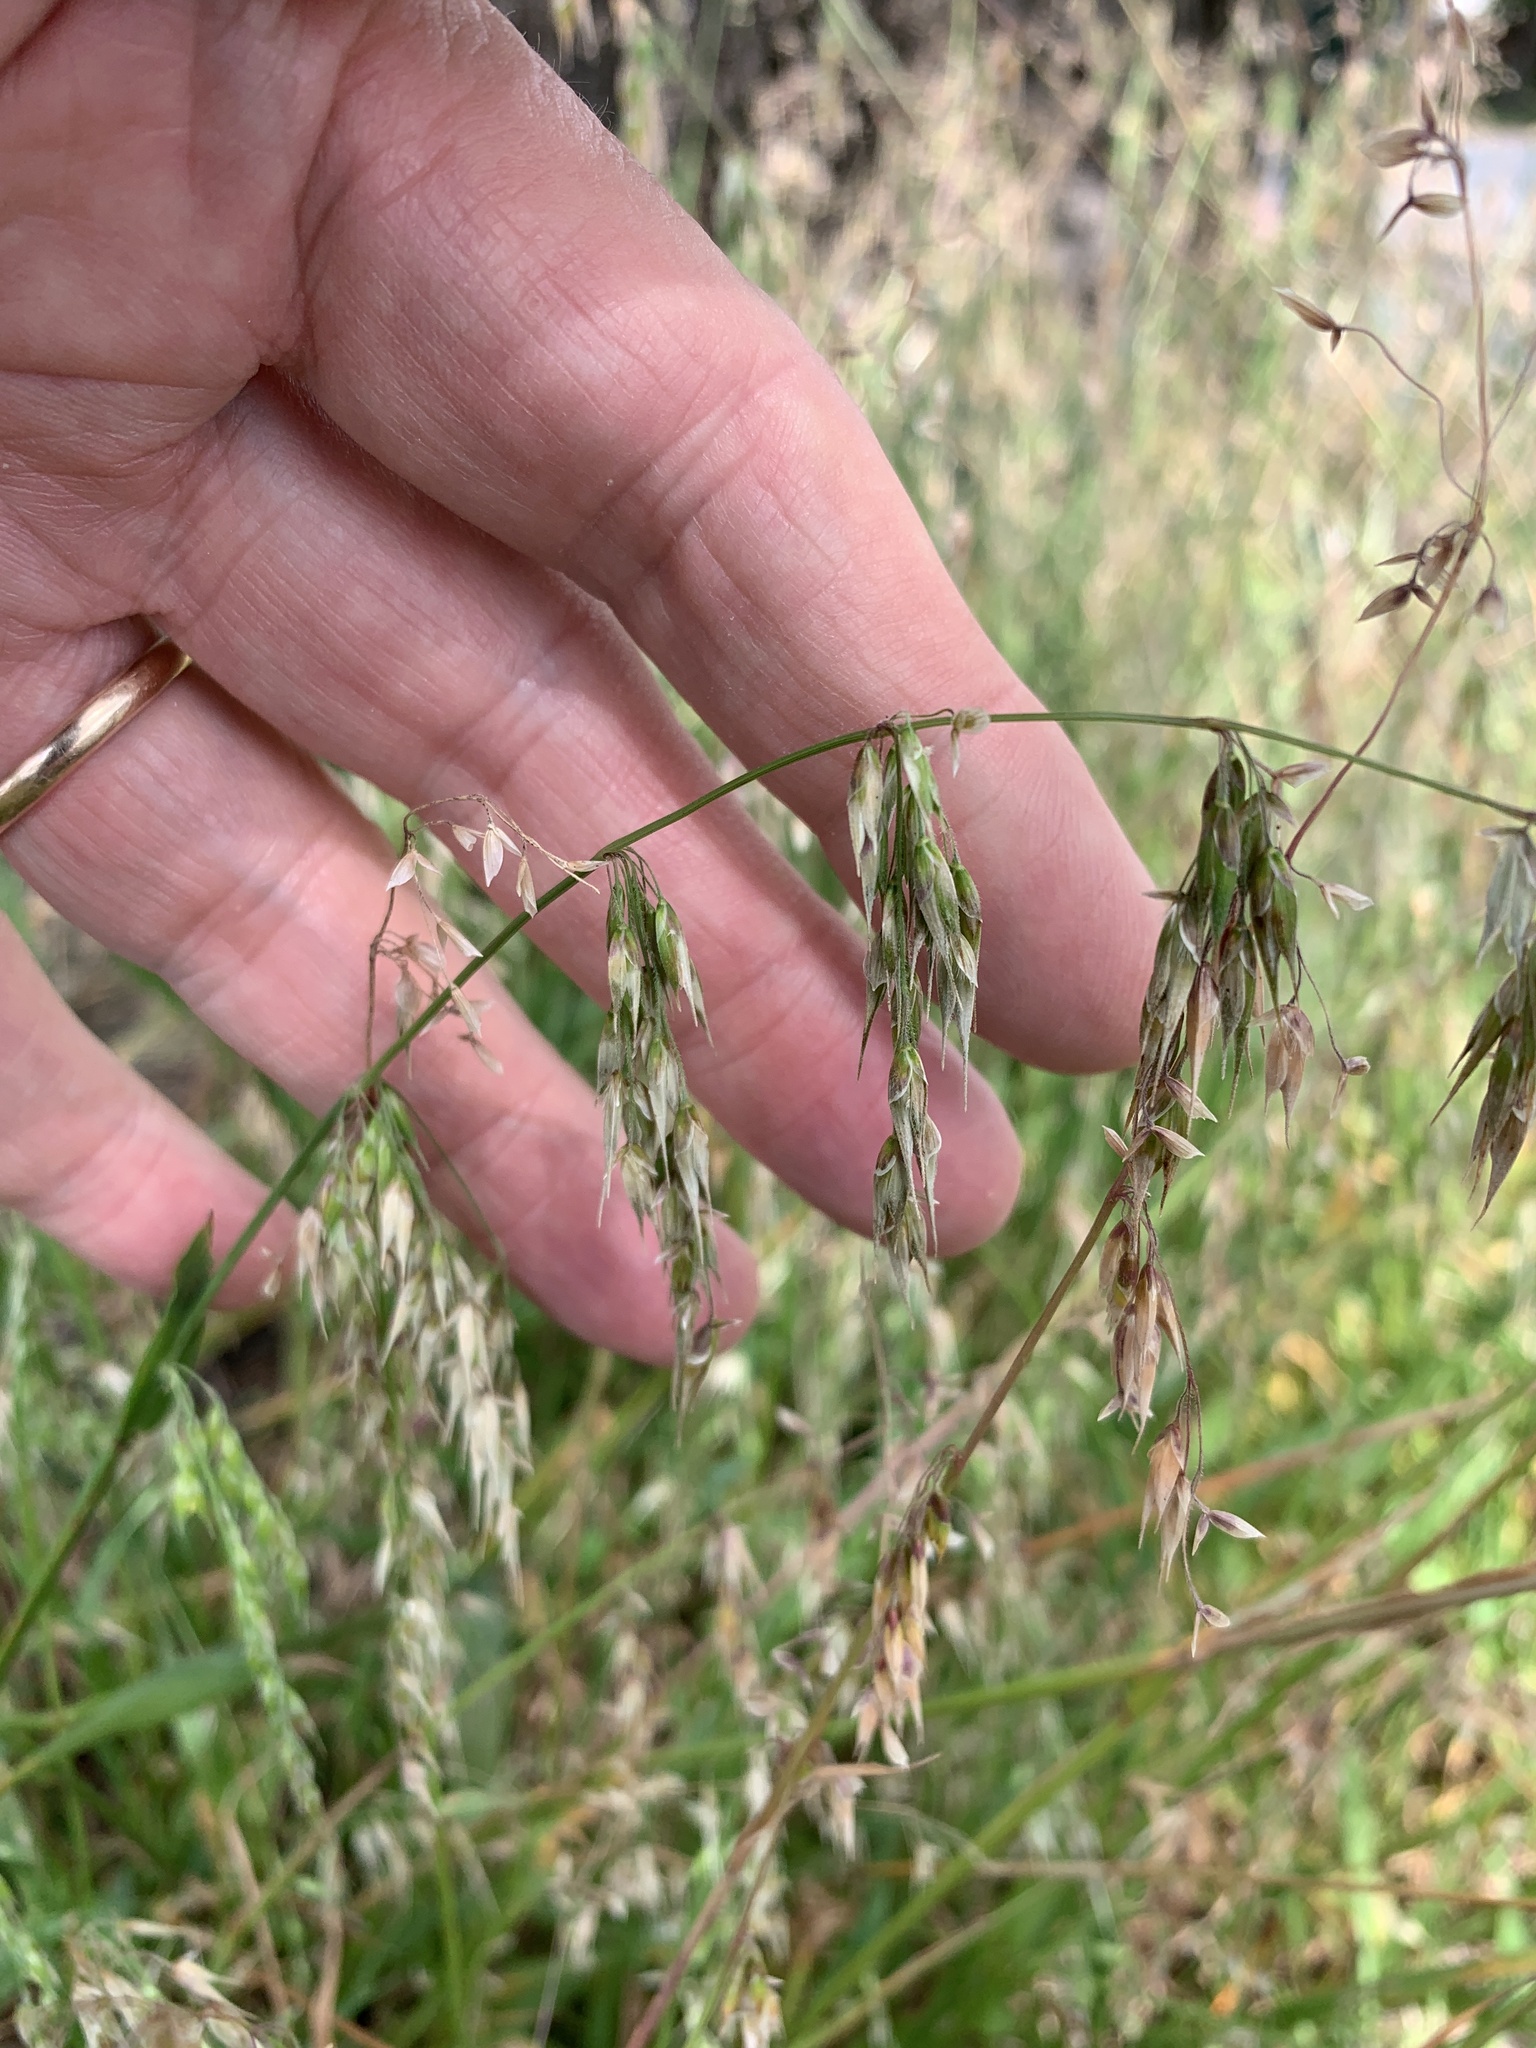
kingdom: Plantae
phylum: Tracheophyta
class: Liliopsida
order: Poales
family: Poaceae
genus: Ehrharta
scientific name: Ehrharta longiflora
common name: Longflowered veldtgrass
